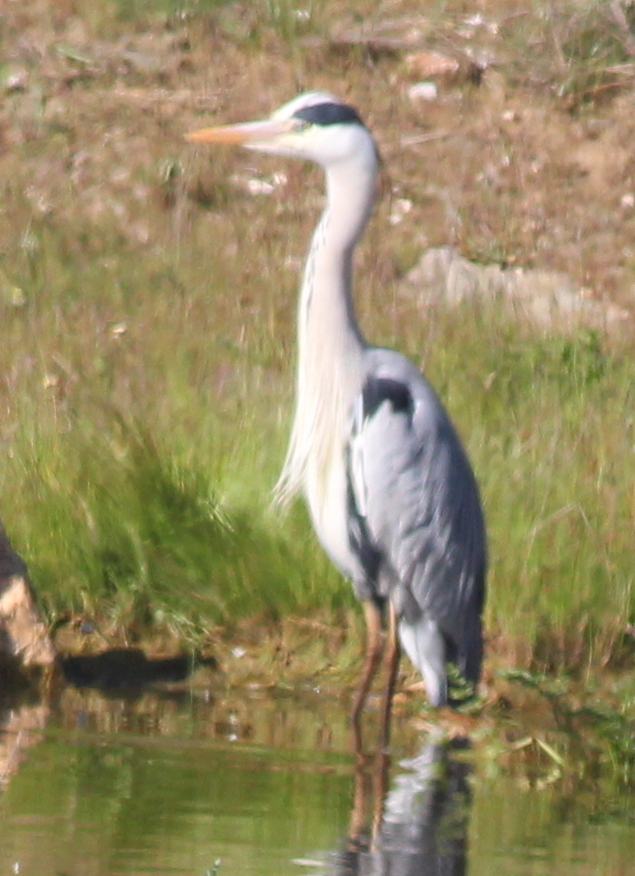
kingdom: Animalia
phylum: Chordata
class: Aves
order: Pelecaniformes
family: Ardeidae
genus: Ardea
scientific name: Ardea cinerea
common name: Grey heron
